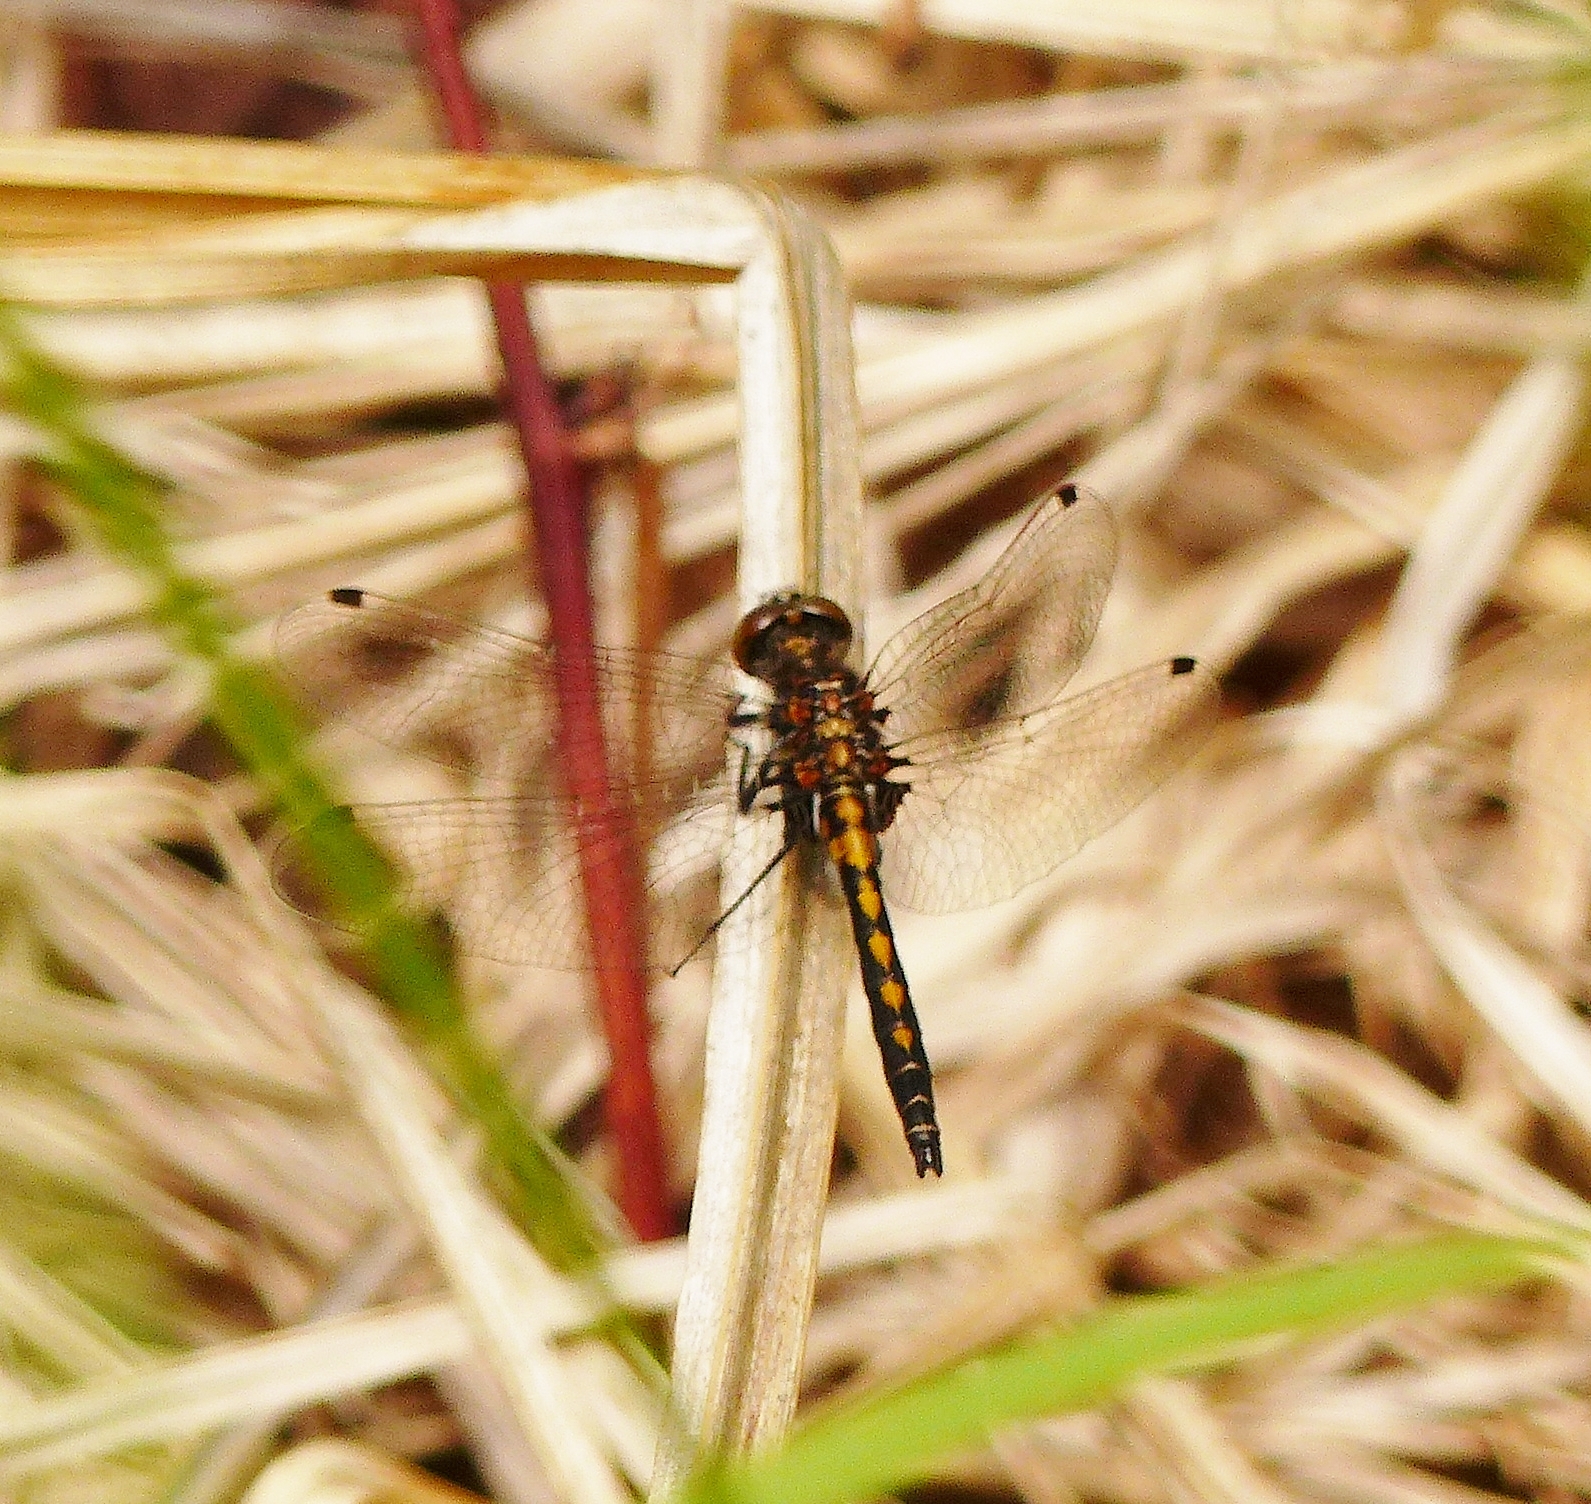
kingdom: Animalia
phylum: Arthropoda
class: Insecta
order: Odonata
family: Libellulidae
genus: Leucorrhinia
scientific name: Leucorrhinia hudsonica
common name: Hudsonian whiteface
